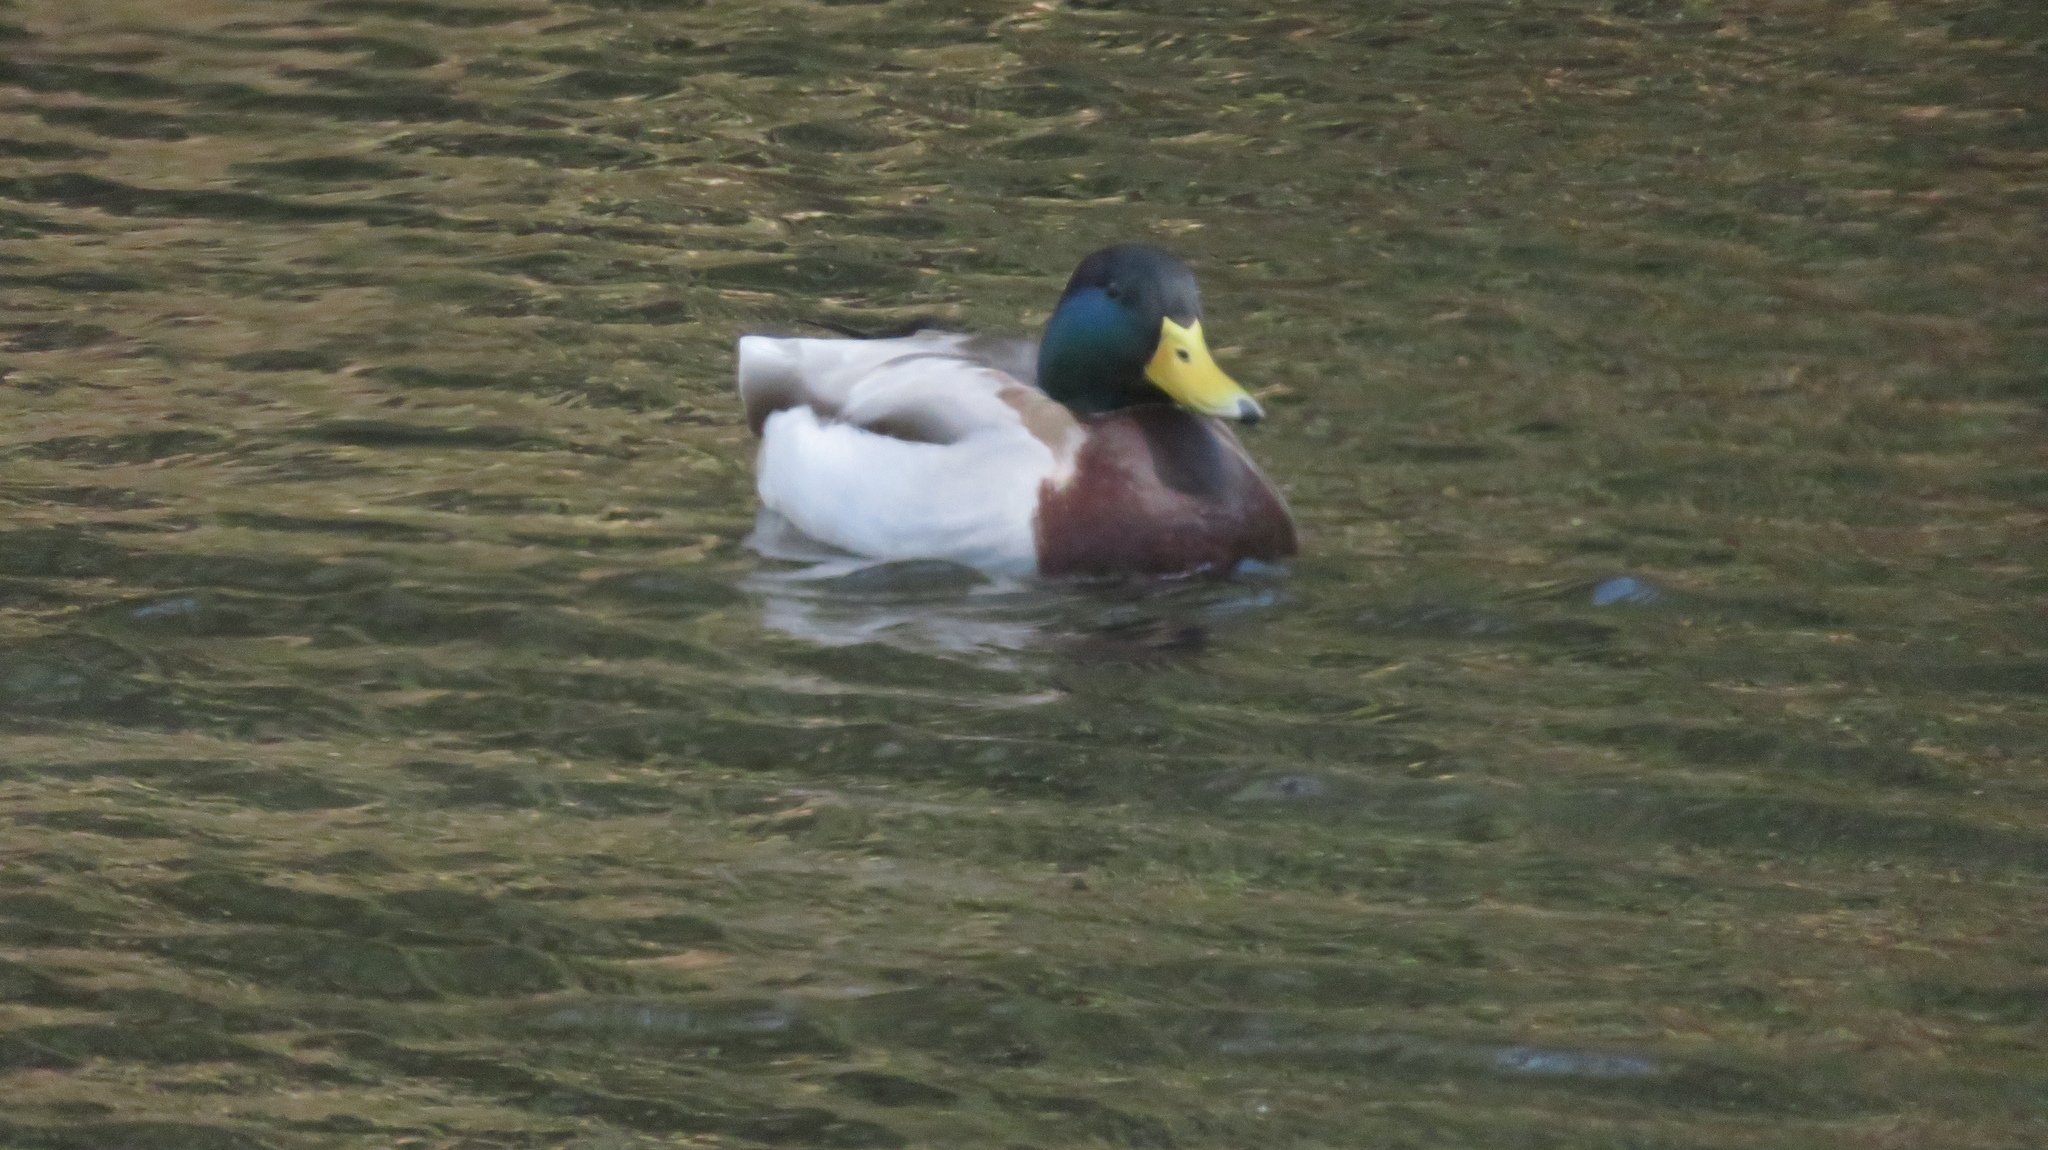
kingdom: Animalia
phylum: Chordata
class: Aves
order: Anseriformes
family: Anatidae
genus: Anas
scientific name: Anas platyrhynchos
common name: Mallard
